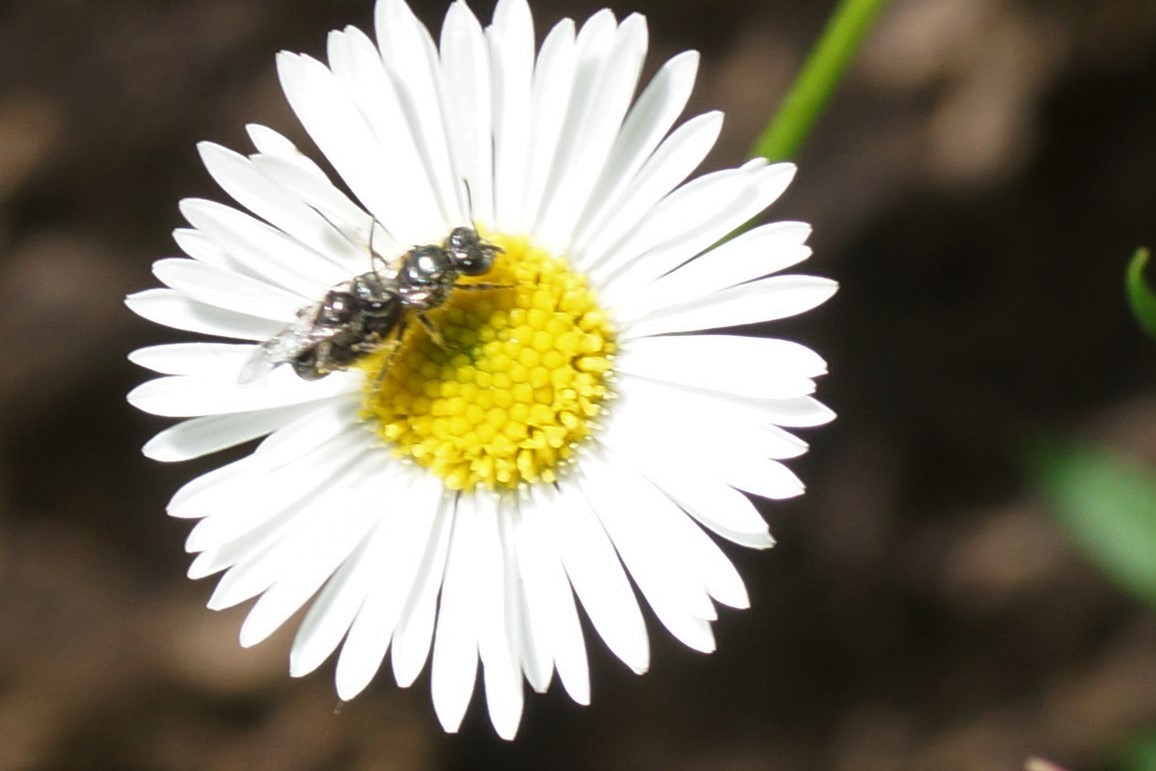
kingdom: Animalia
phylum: Arthropoda
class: Insecta
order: Hymenoptera
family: Halictidae
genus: Lasioglossum
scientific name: Lasioglossum
